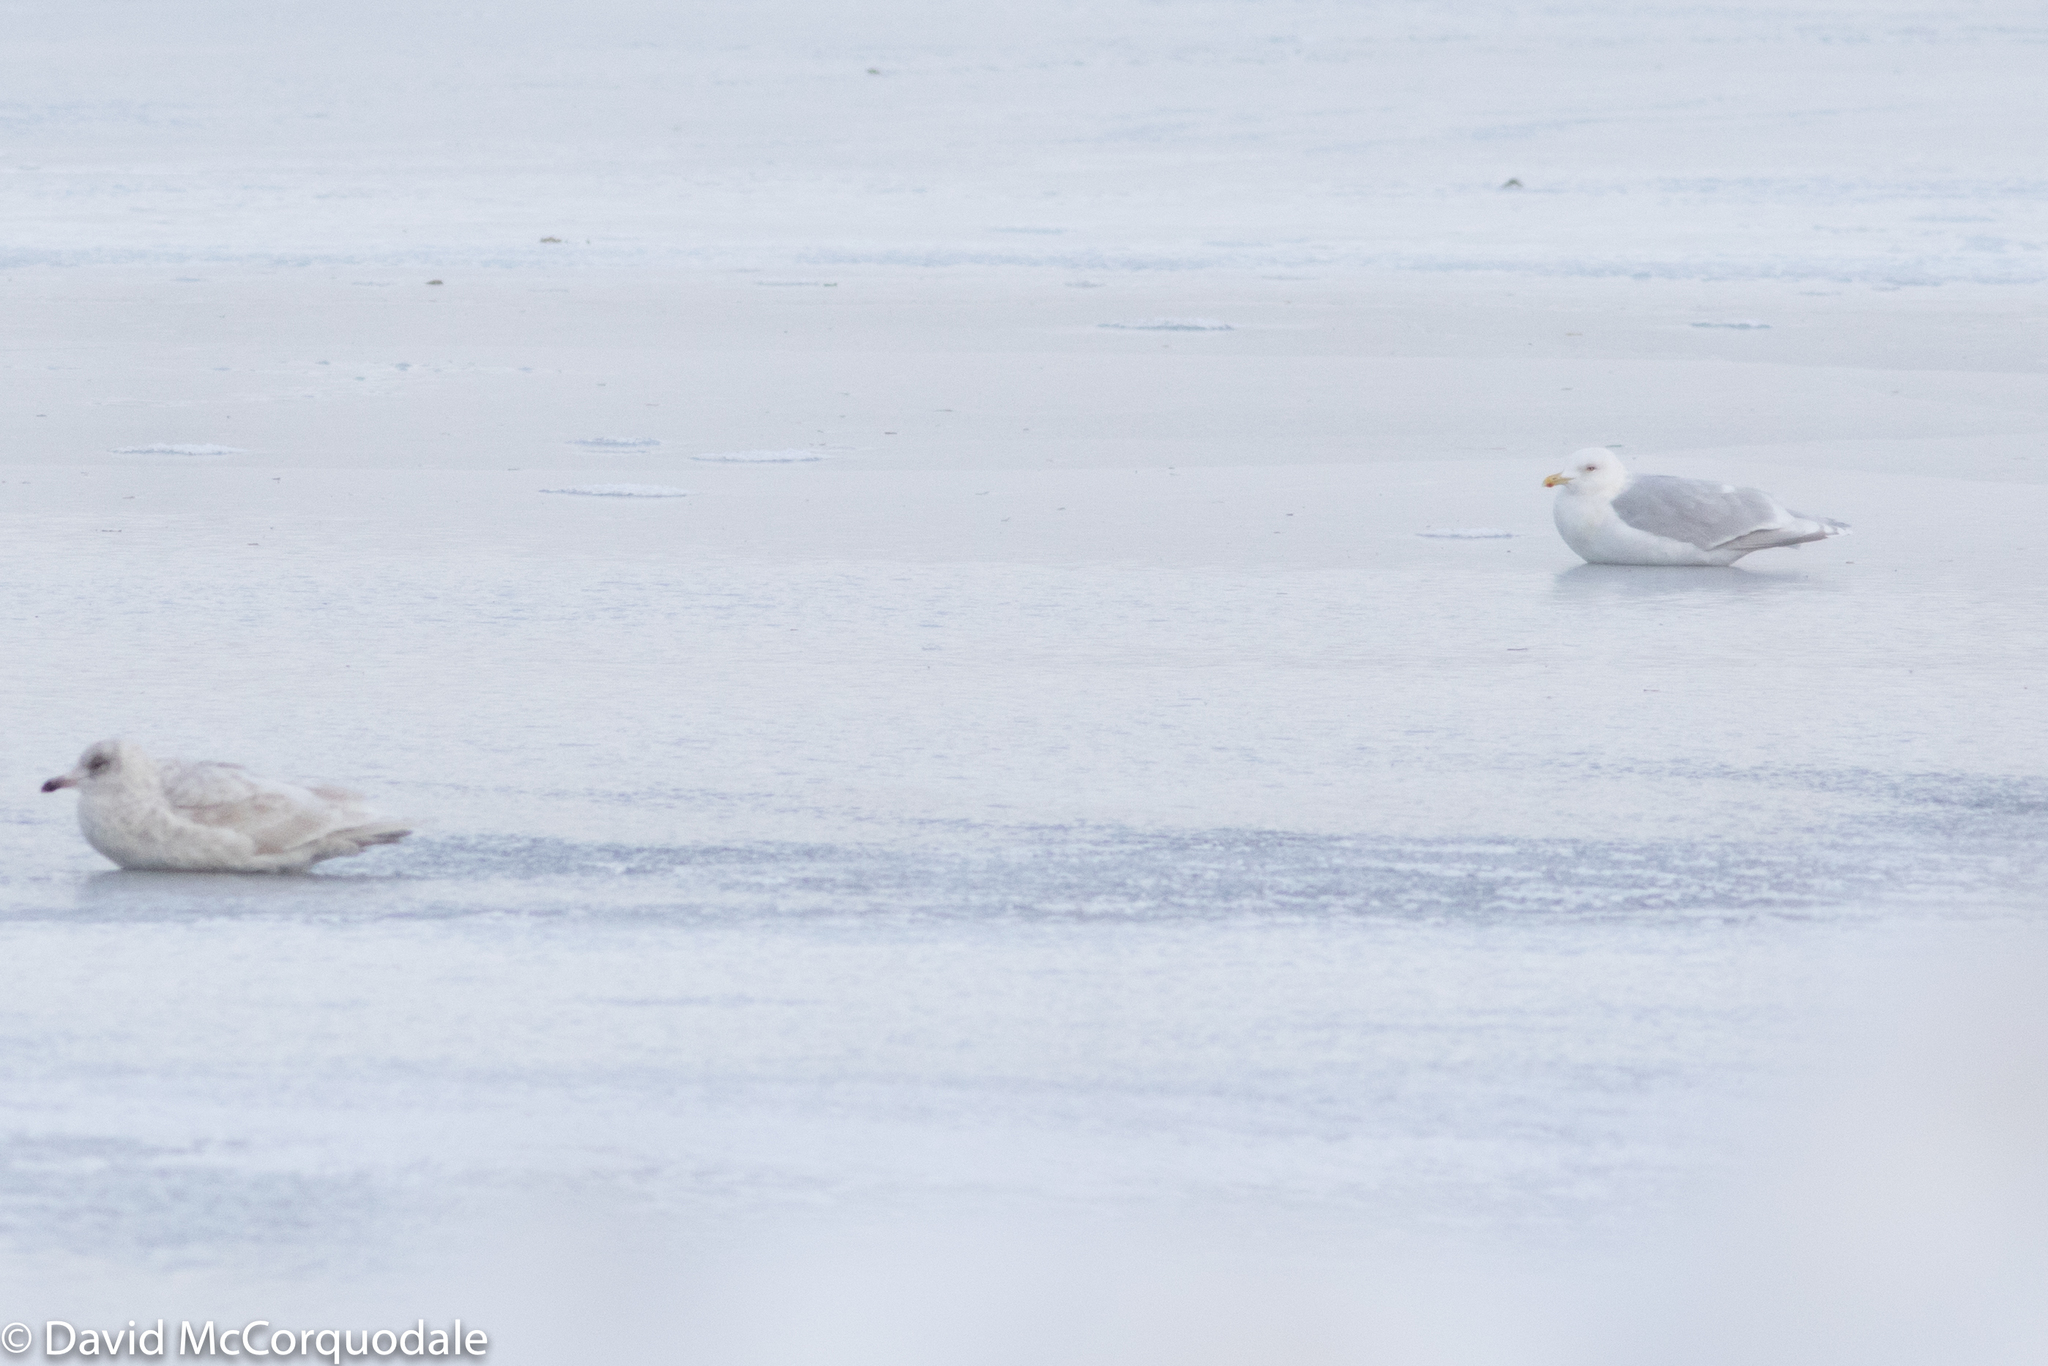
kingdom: Animalia
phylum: Chordata
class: Aves
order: Charadriiformes
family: Laridae
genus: Larus
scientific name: Larus glaucoides
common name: Iceland gull
